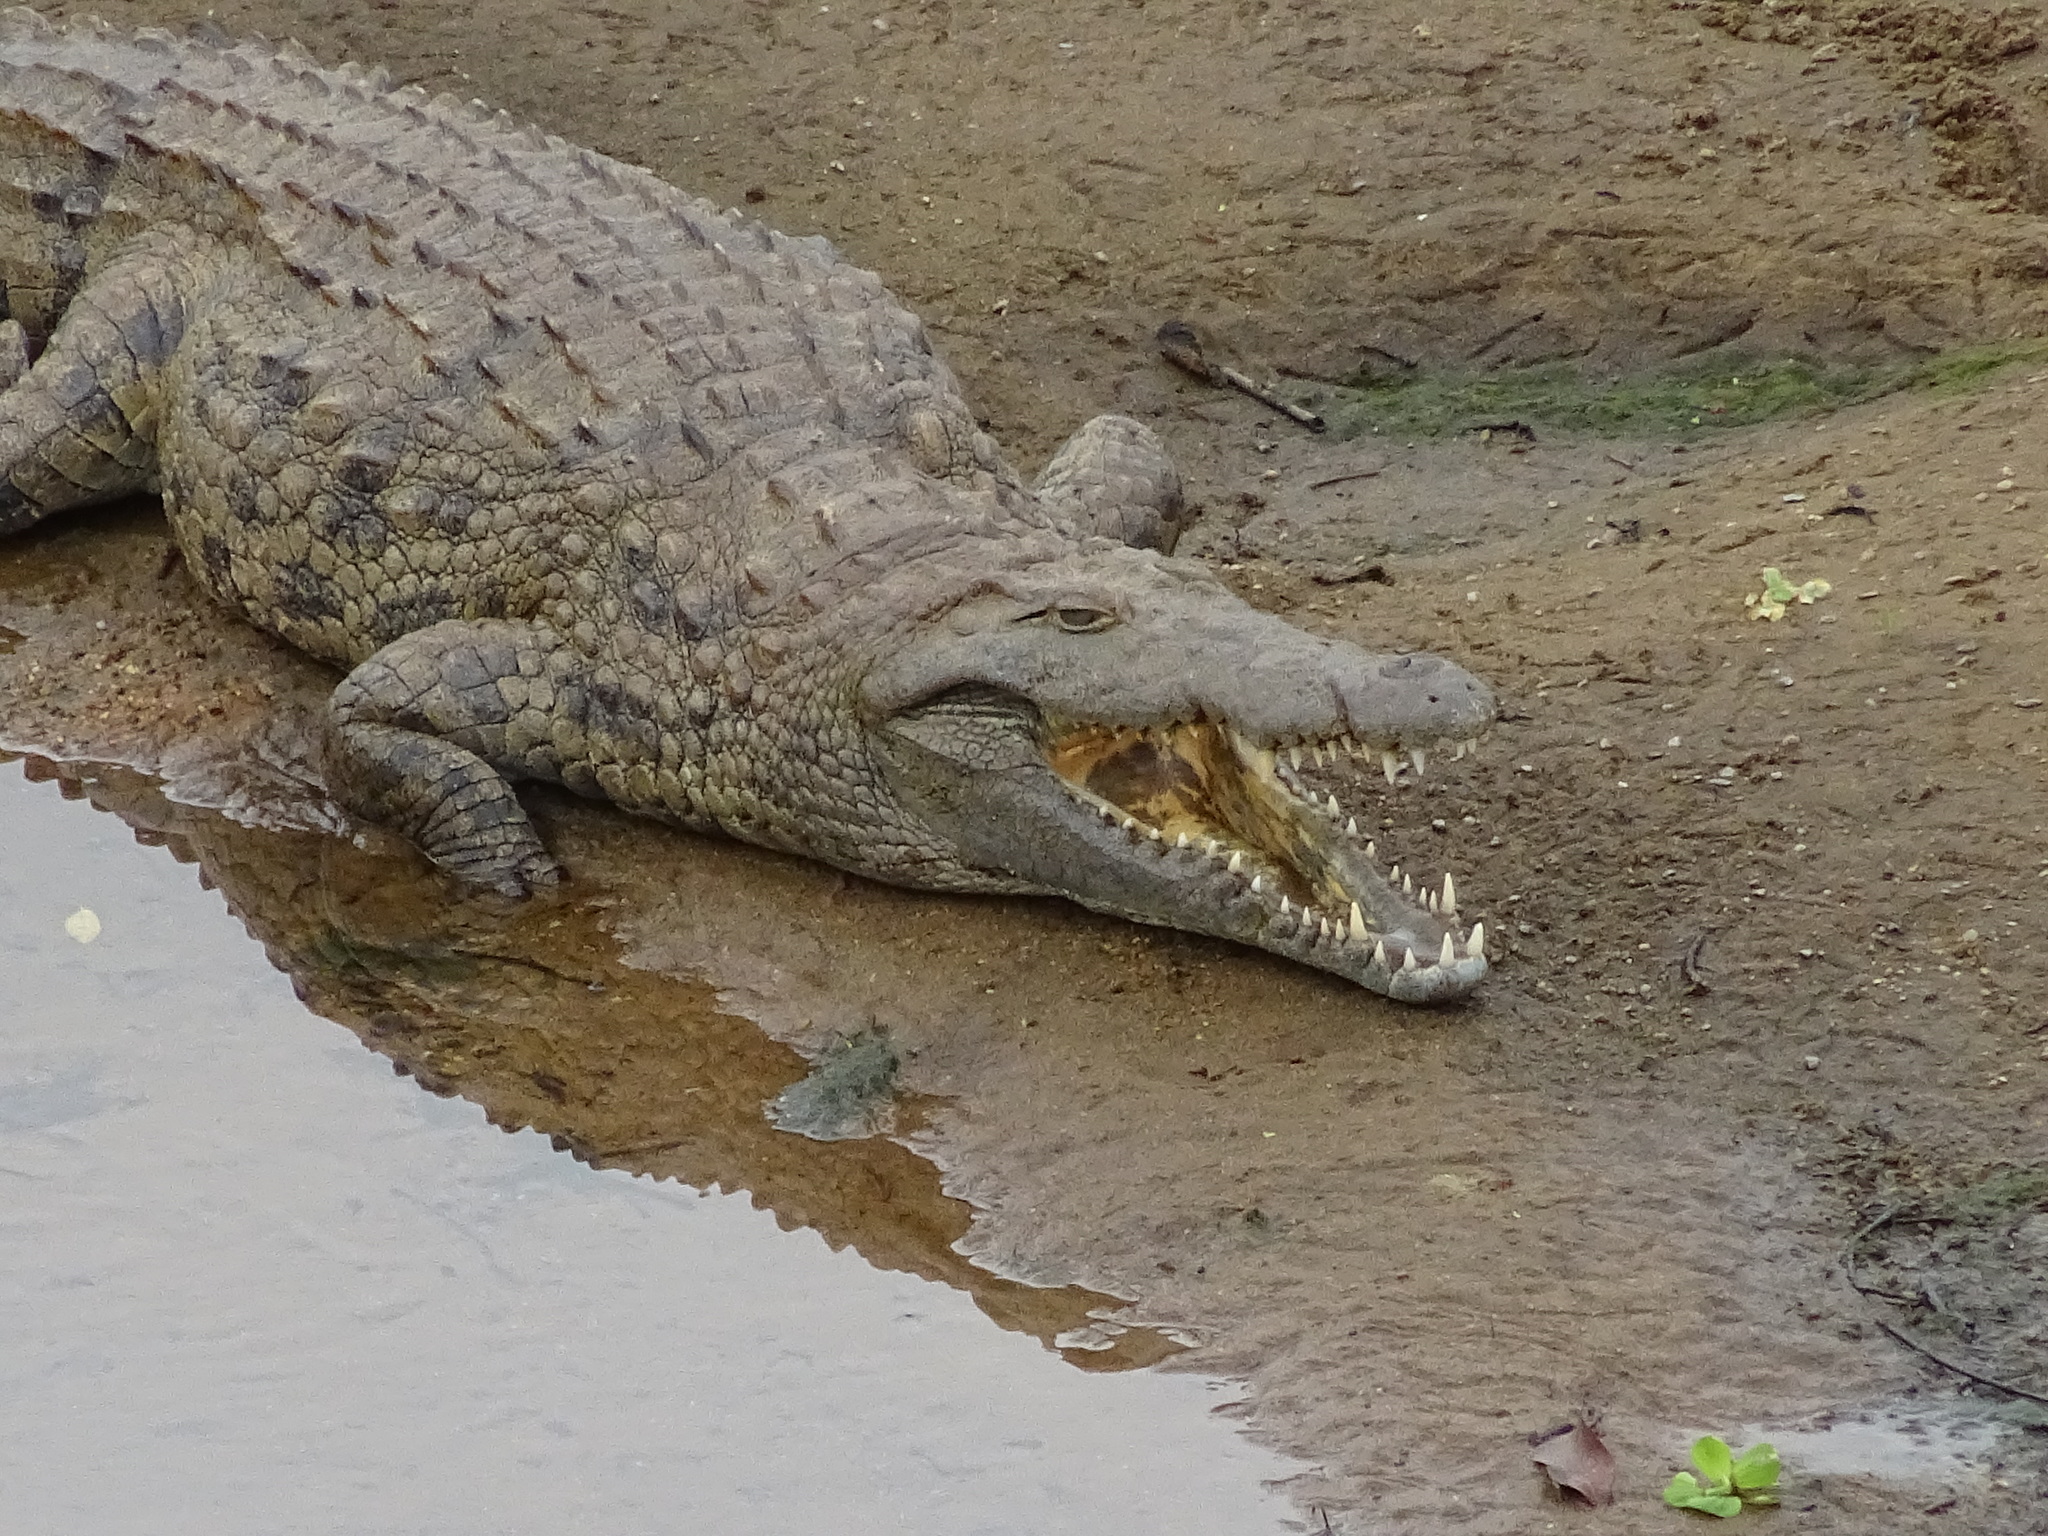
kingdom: Animalia
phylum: Chordata
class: Crocodylia
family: Crocodylidae
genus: Crocodylus
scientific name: Crocodylus niloticus
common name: Nile crocodile
